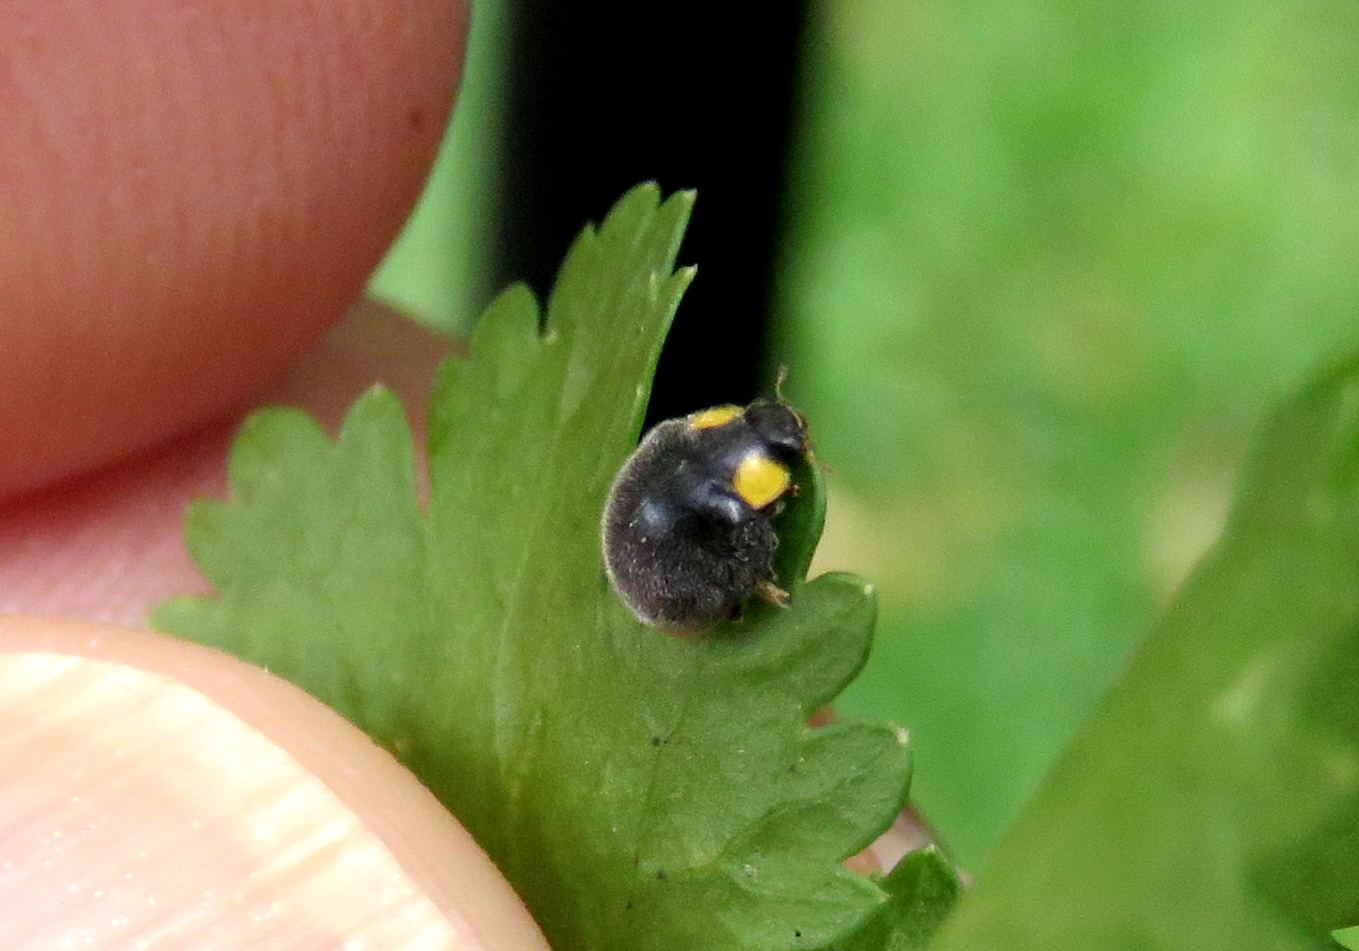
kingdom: Animalia
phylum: Arthropoda
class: Insecta
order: Coleoptera
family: Coccinellidae
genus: Scymnodes
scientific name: Scymnodes lividigaster
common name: Yellowshouldered lady beetle
